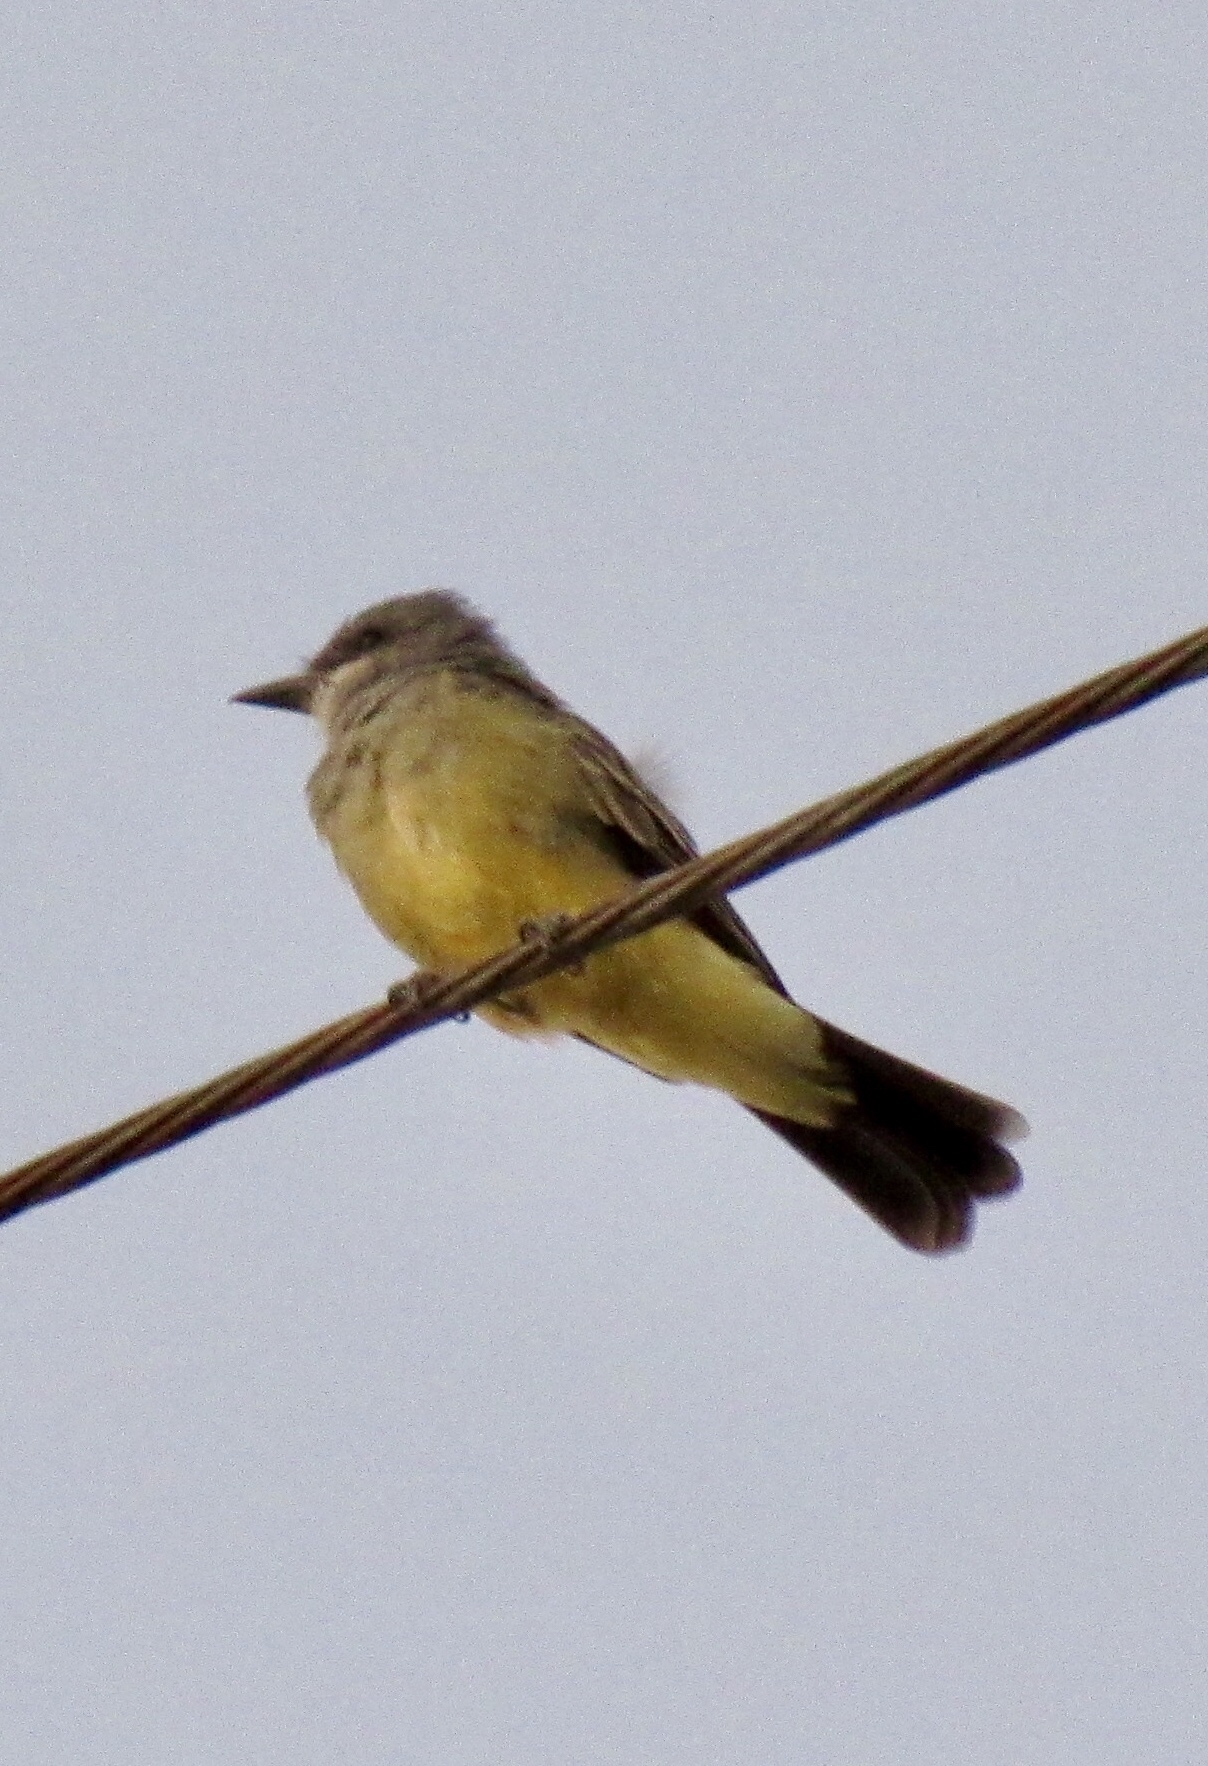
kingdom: Animalia
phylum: Chordata
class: Aves
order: Passeriformes
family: Tyrannidae
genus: Tyrannus
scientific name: Tyrannus vociferans
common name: Cassin's kingbird
